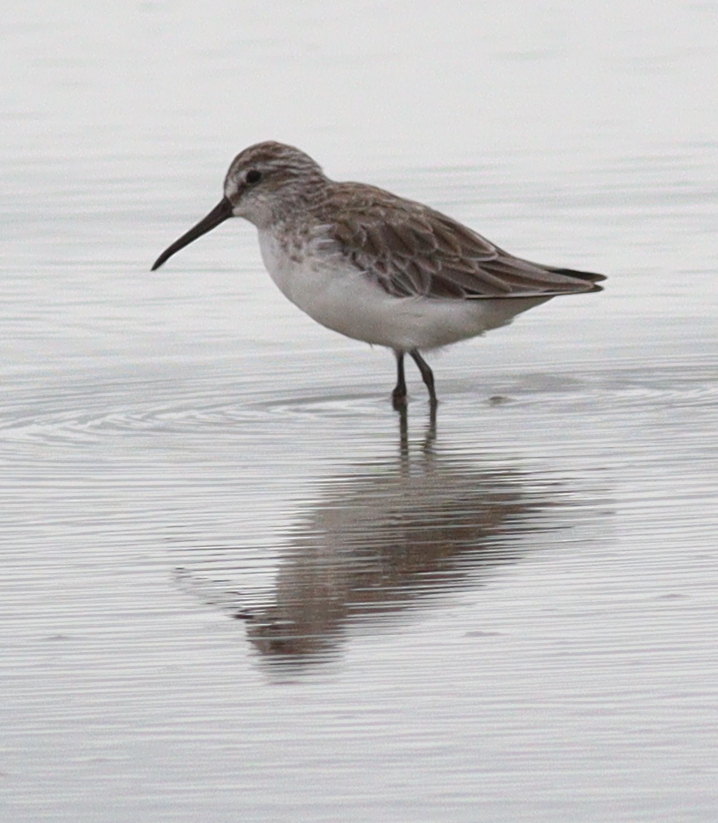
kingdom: Animalia
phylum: Chordata
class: Aves
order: Charadriiformes
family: Scolopacidae
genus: Calidris
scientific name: Calidris falcinellus
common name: Broad-billed sandpiper
